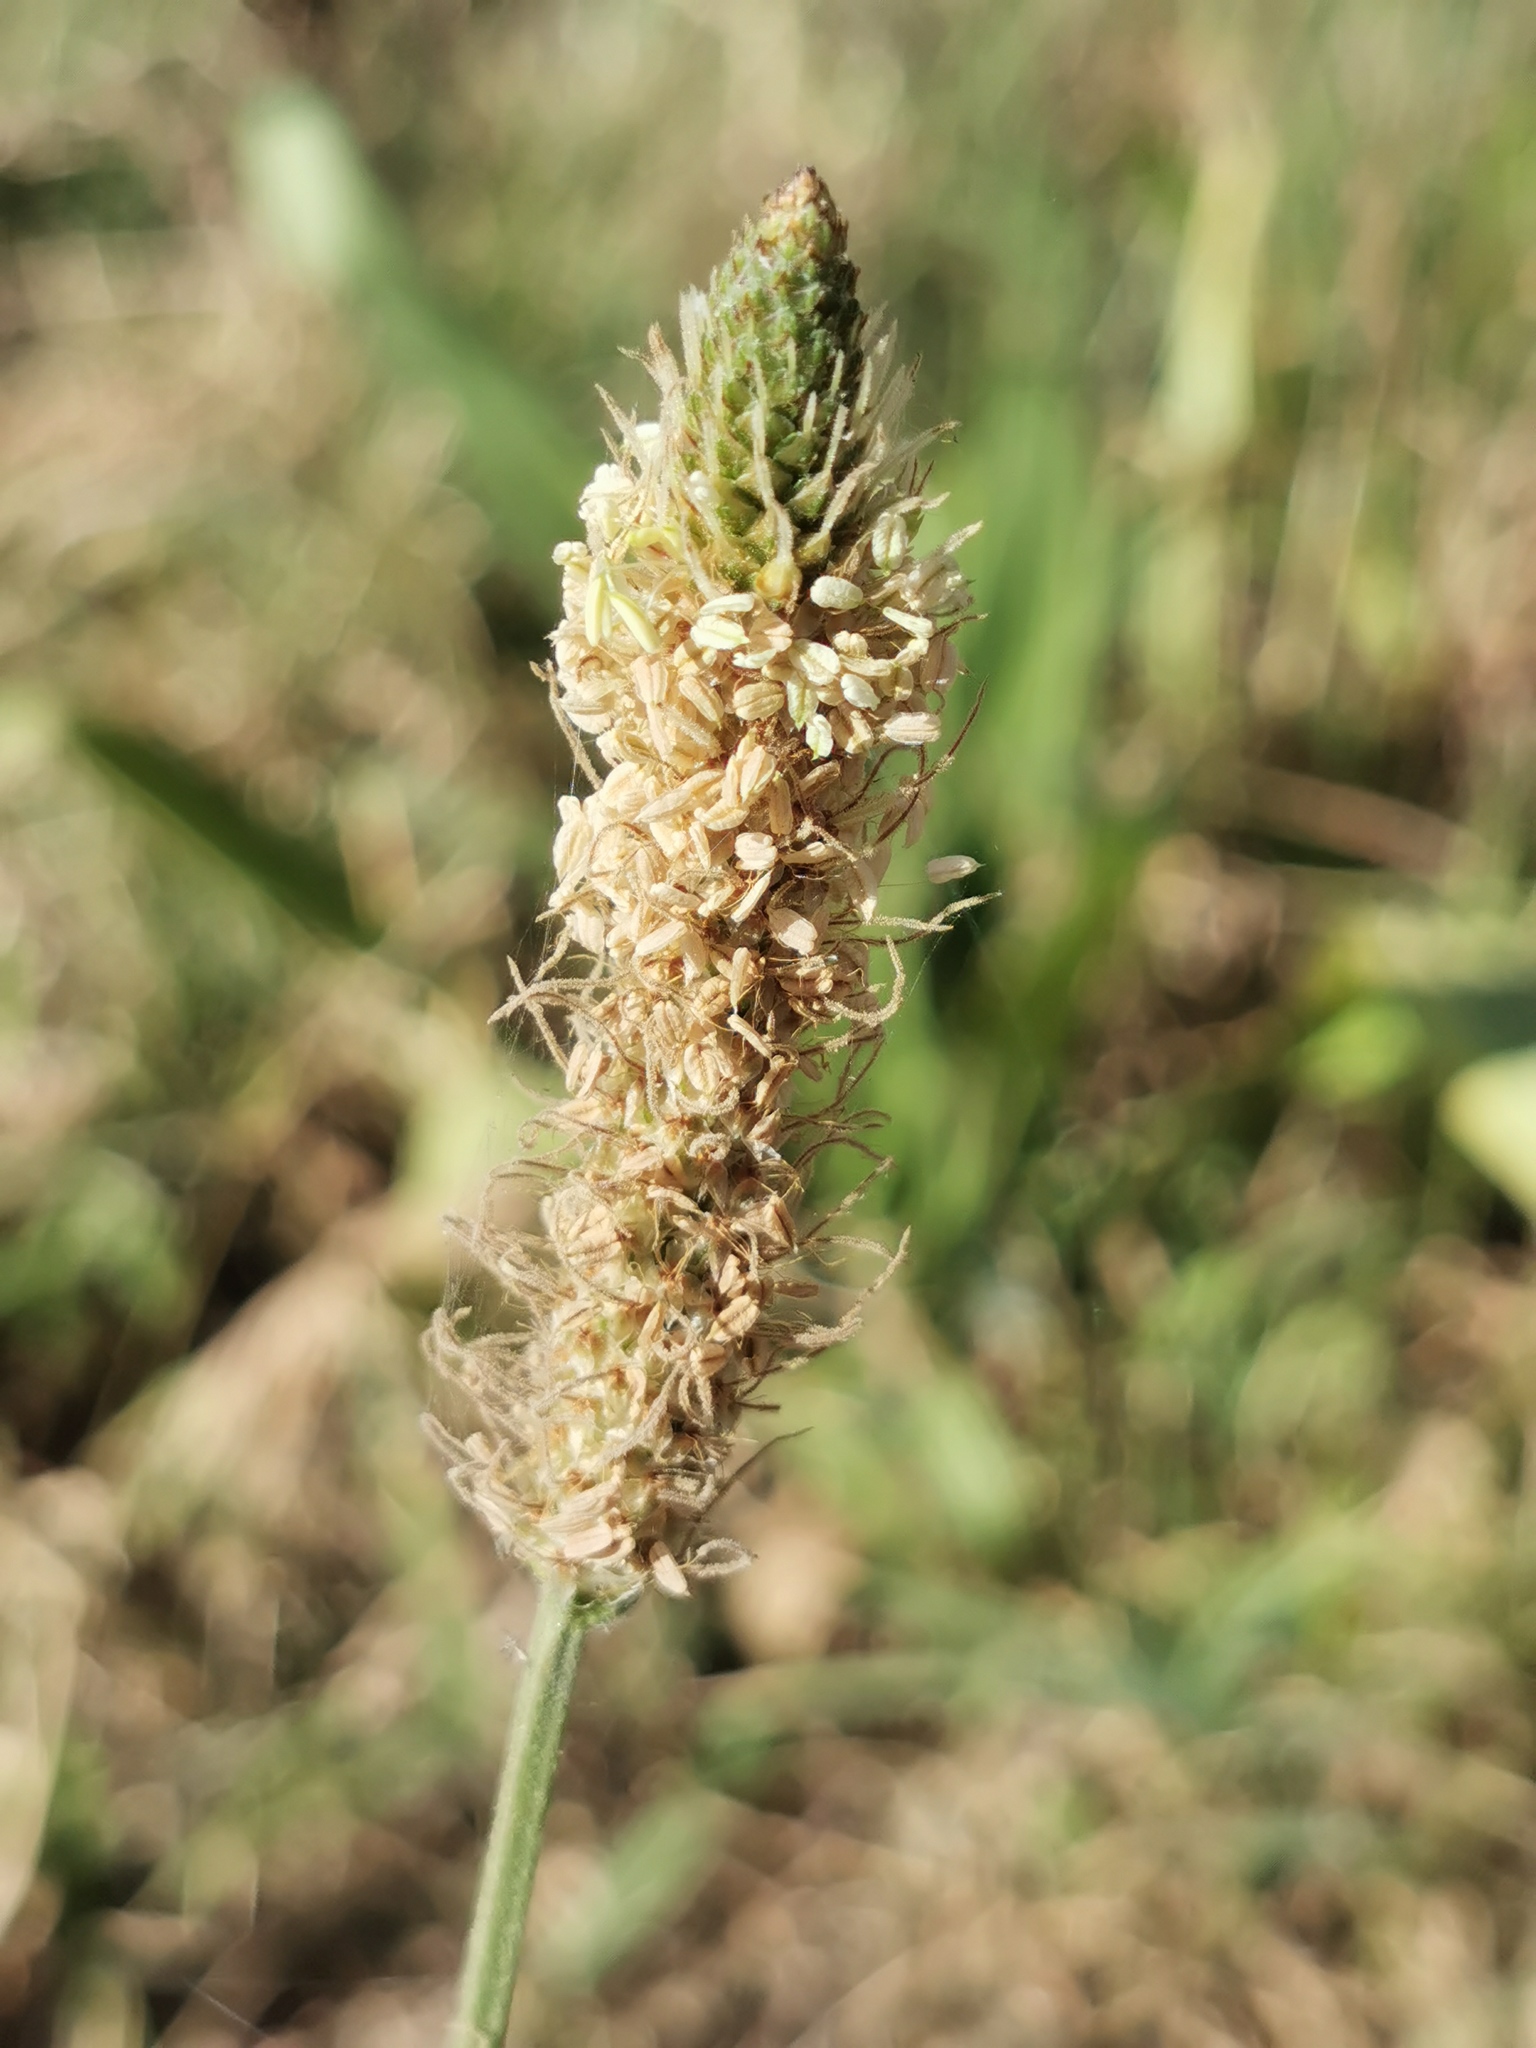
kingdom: Plantae
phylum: Tracheophyta
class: Magnoliopsida
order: Lamiales
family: Plantaginaceae
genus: Plantago
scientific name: Plantago lanceolata
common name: Ribwort plantain
